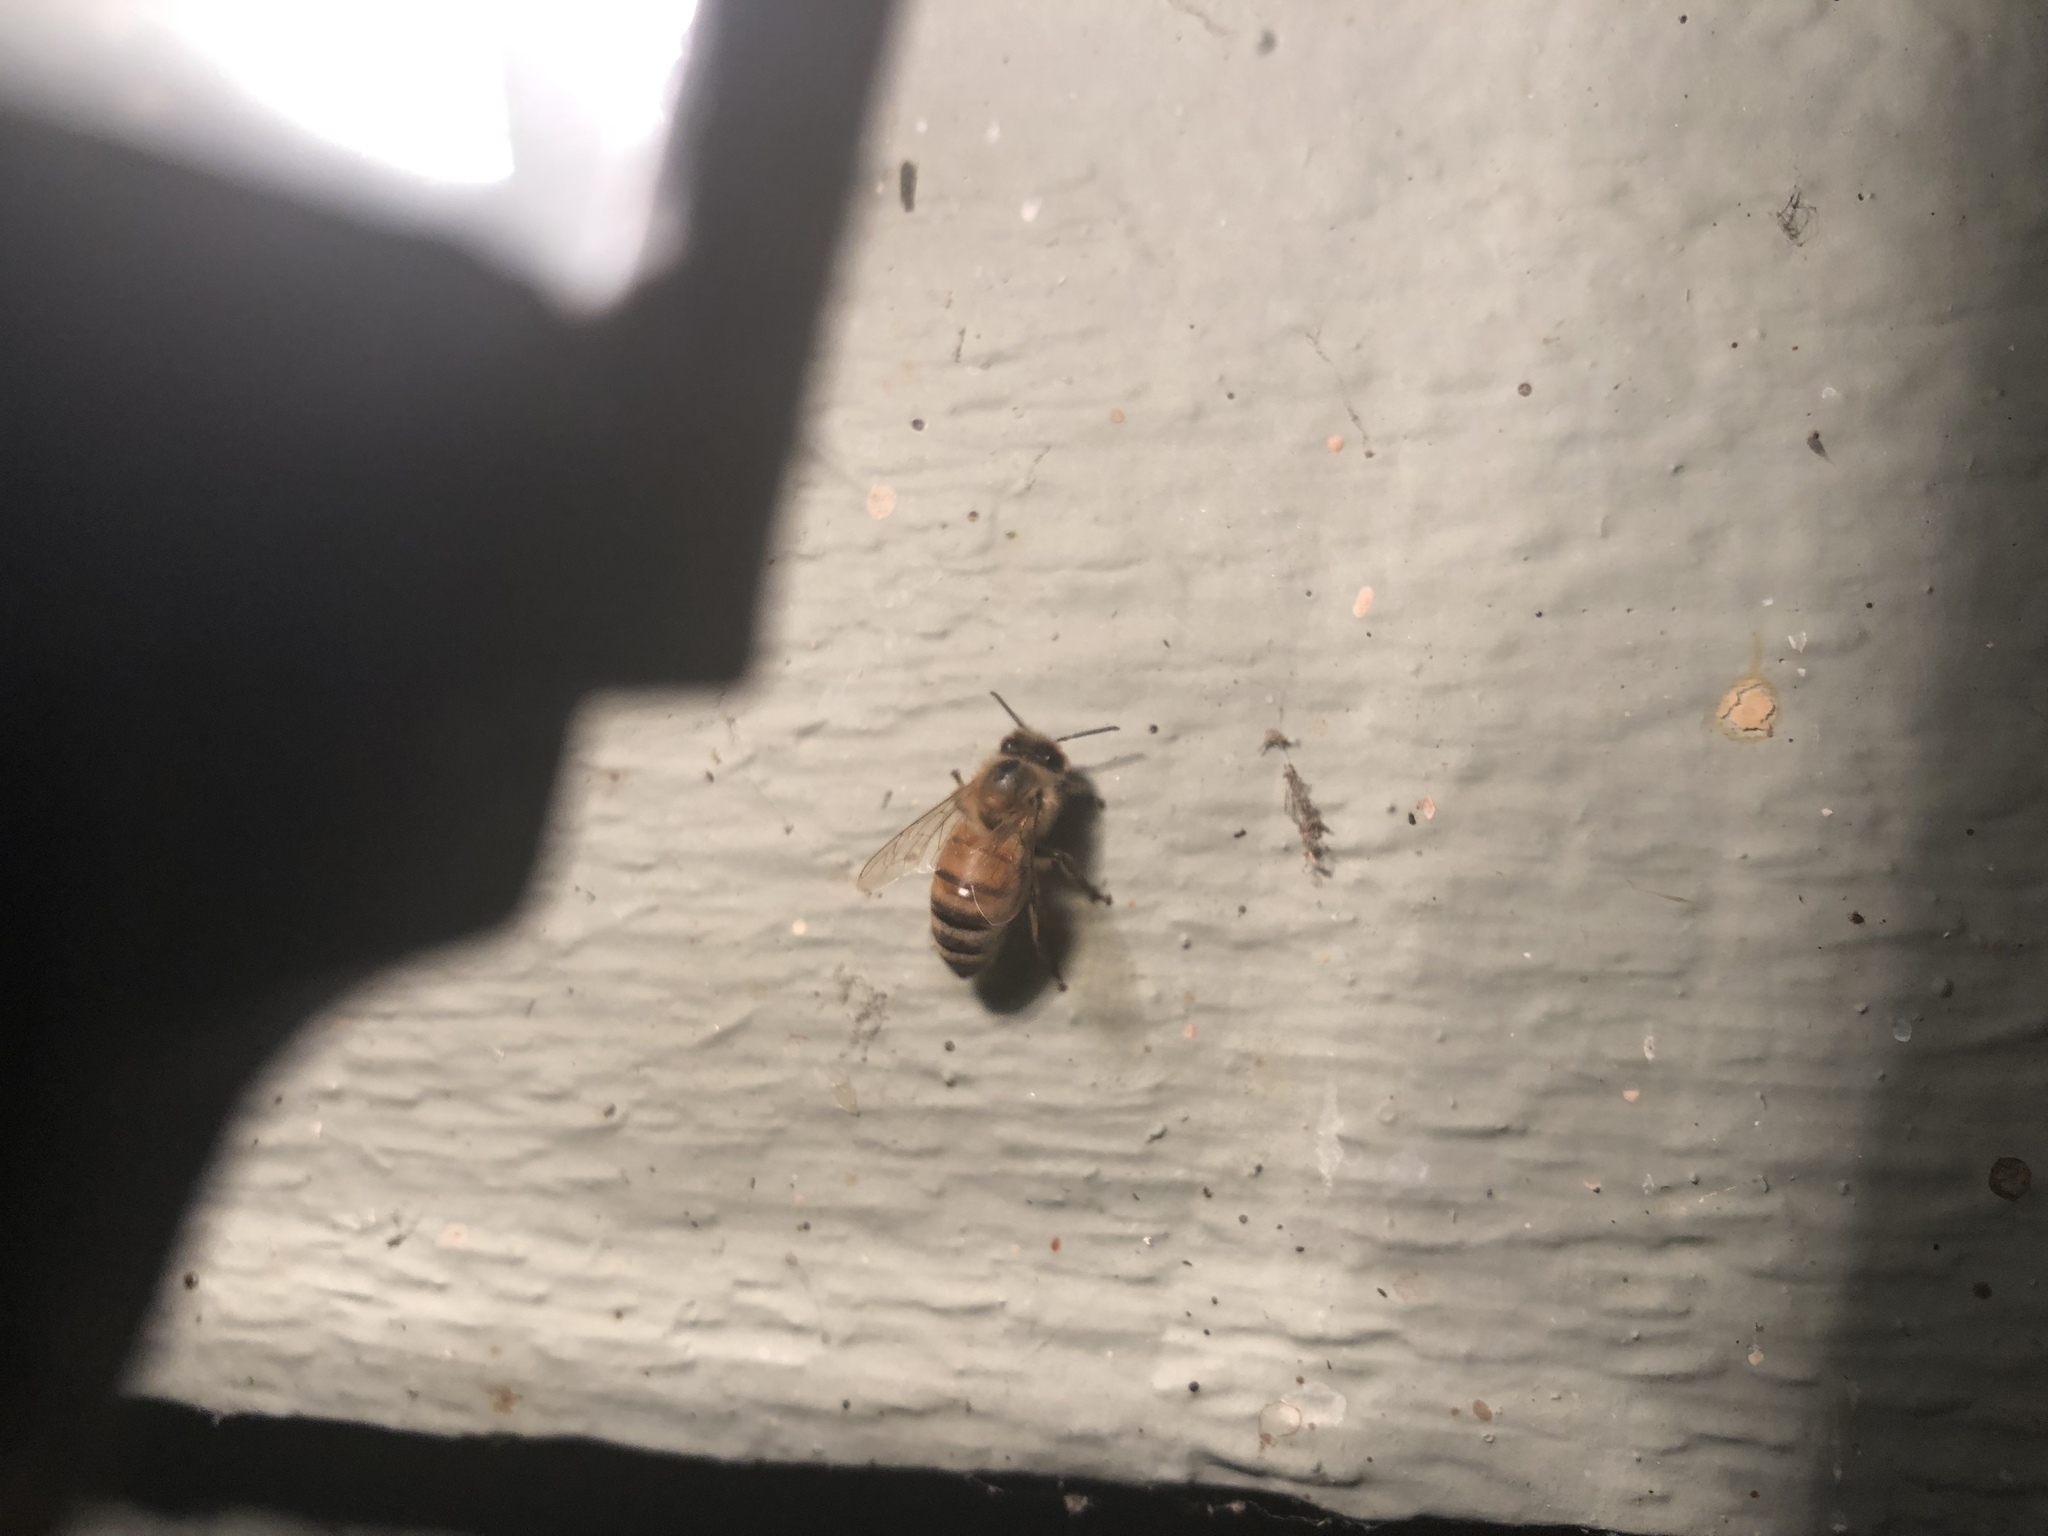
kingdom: Animalia
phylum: Arthropoda
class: Insecta
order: Hymenoptera
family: Apidae
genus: Apis
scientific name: Apis mellifera
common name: Honey bee
